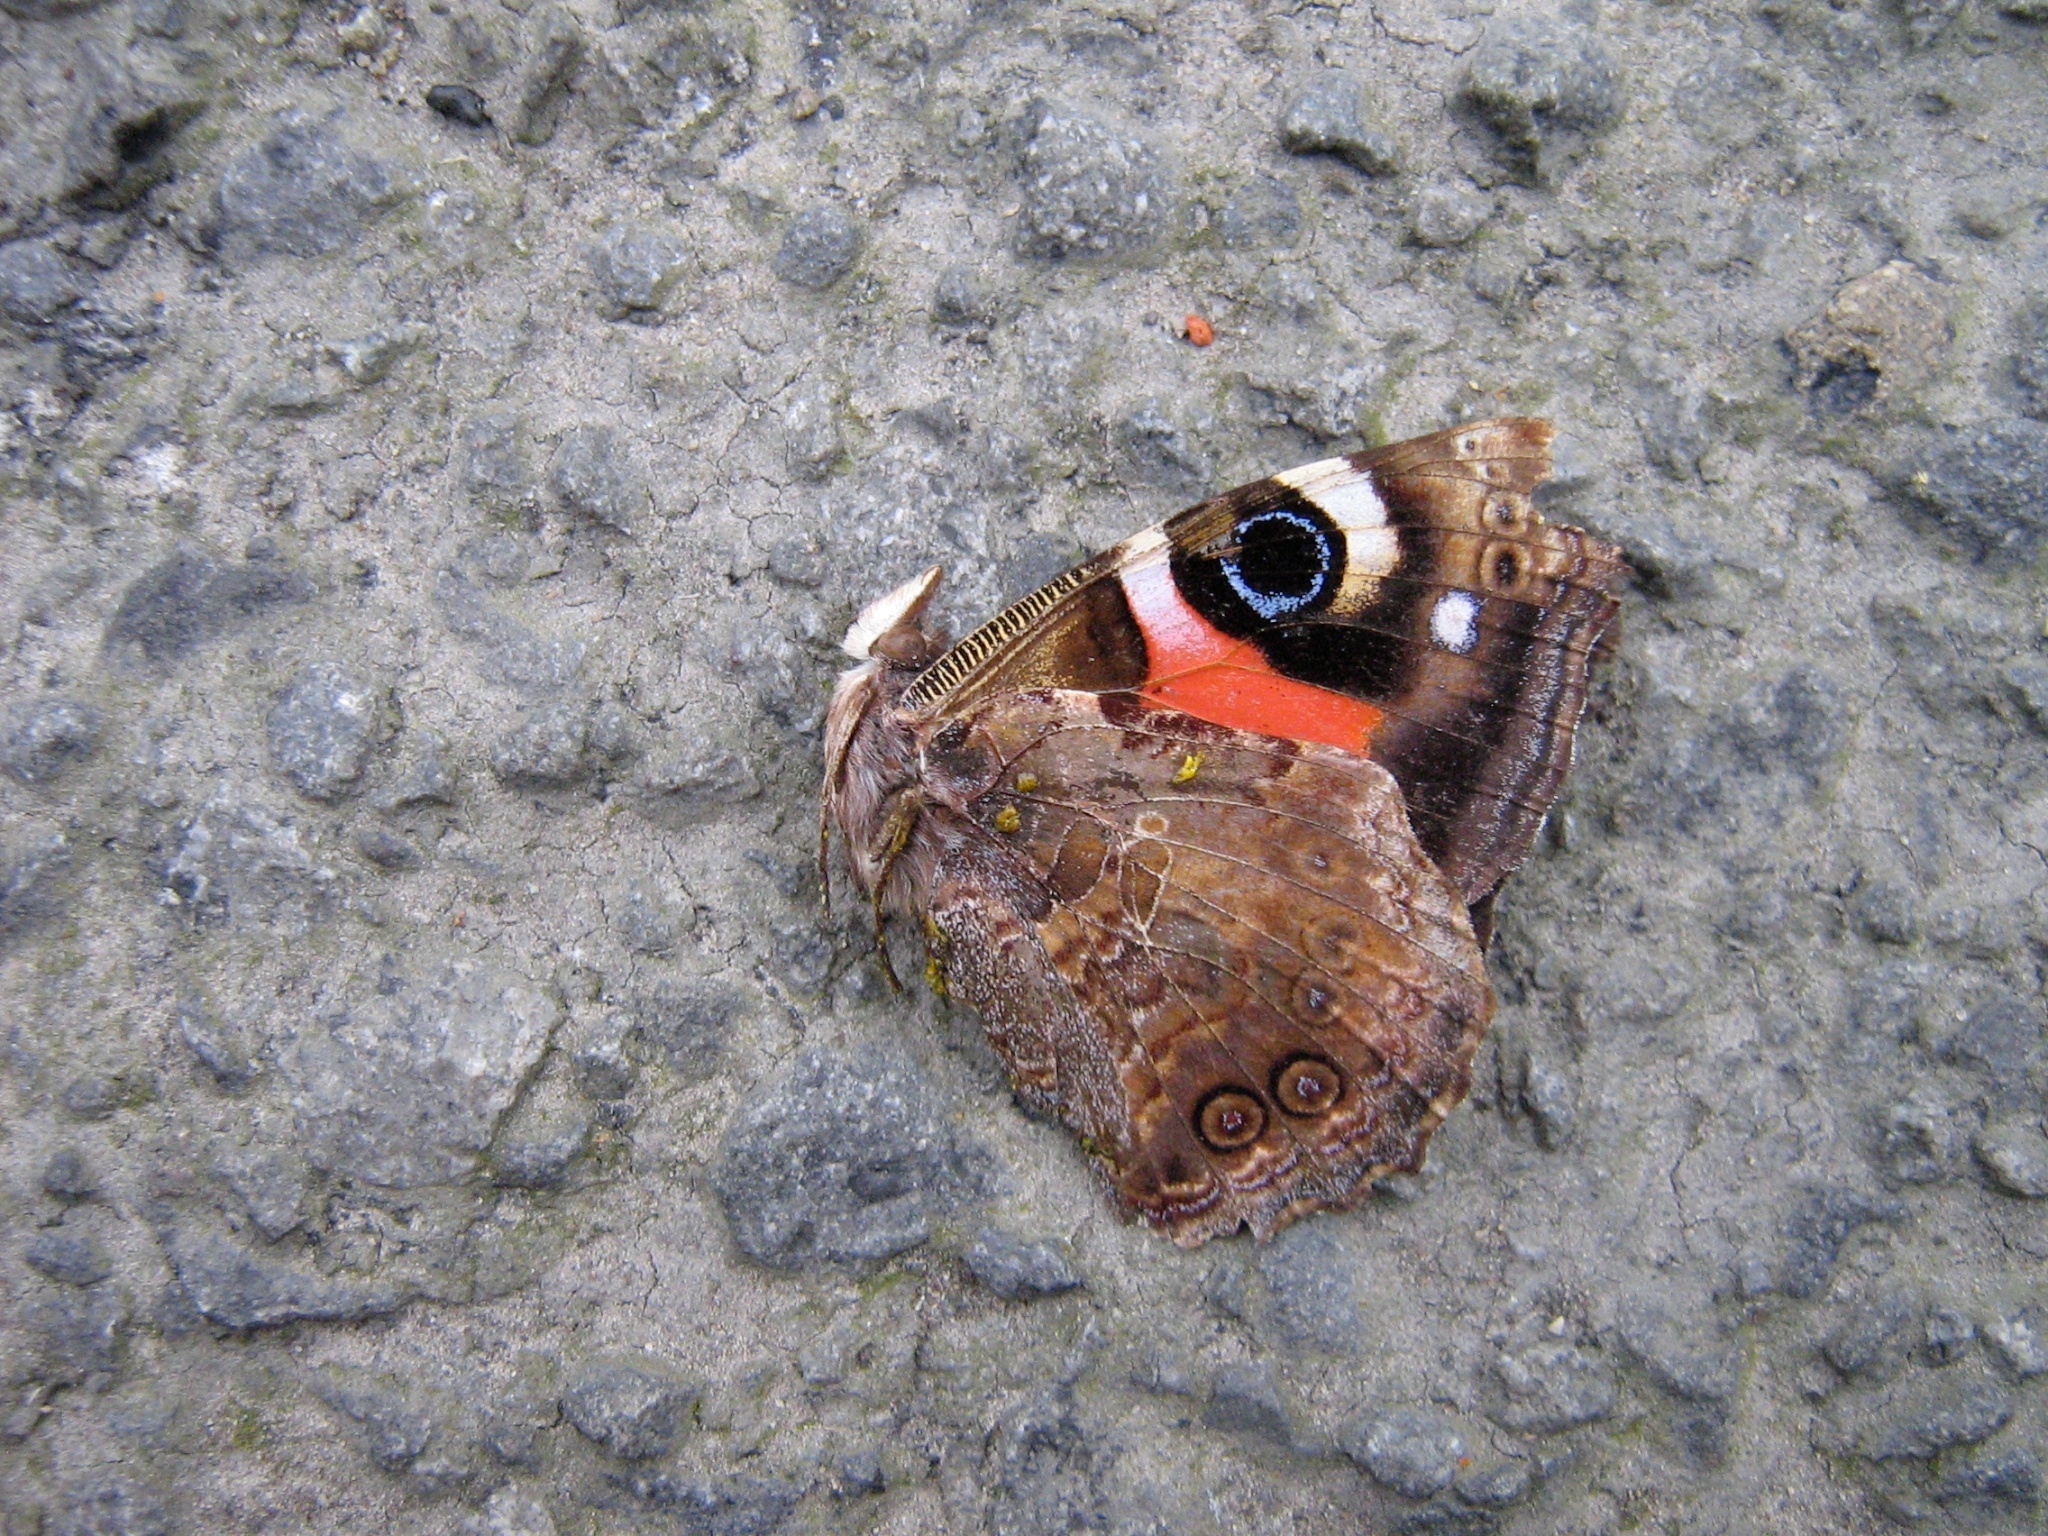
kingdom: Animalia
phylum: Arthropoda
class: Insecta
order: Lepidoptera
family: Nymphalidae
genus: Vanessa
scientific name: Vanessa gonerilla
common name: New zealand red admiral
